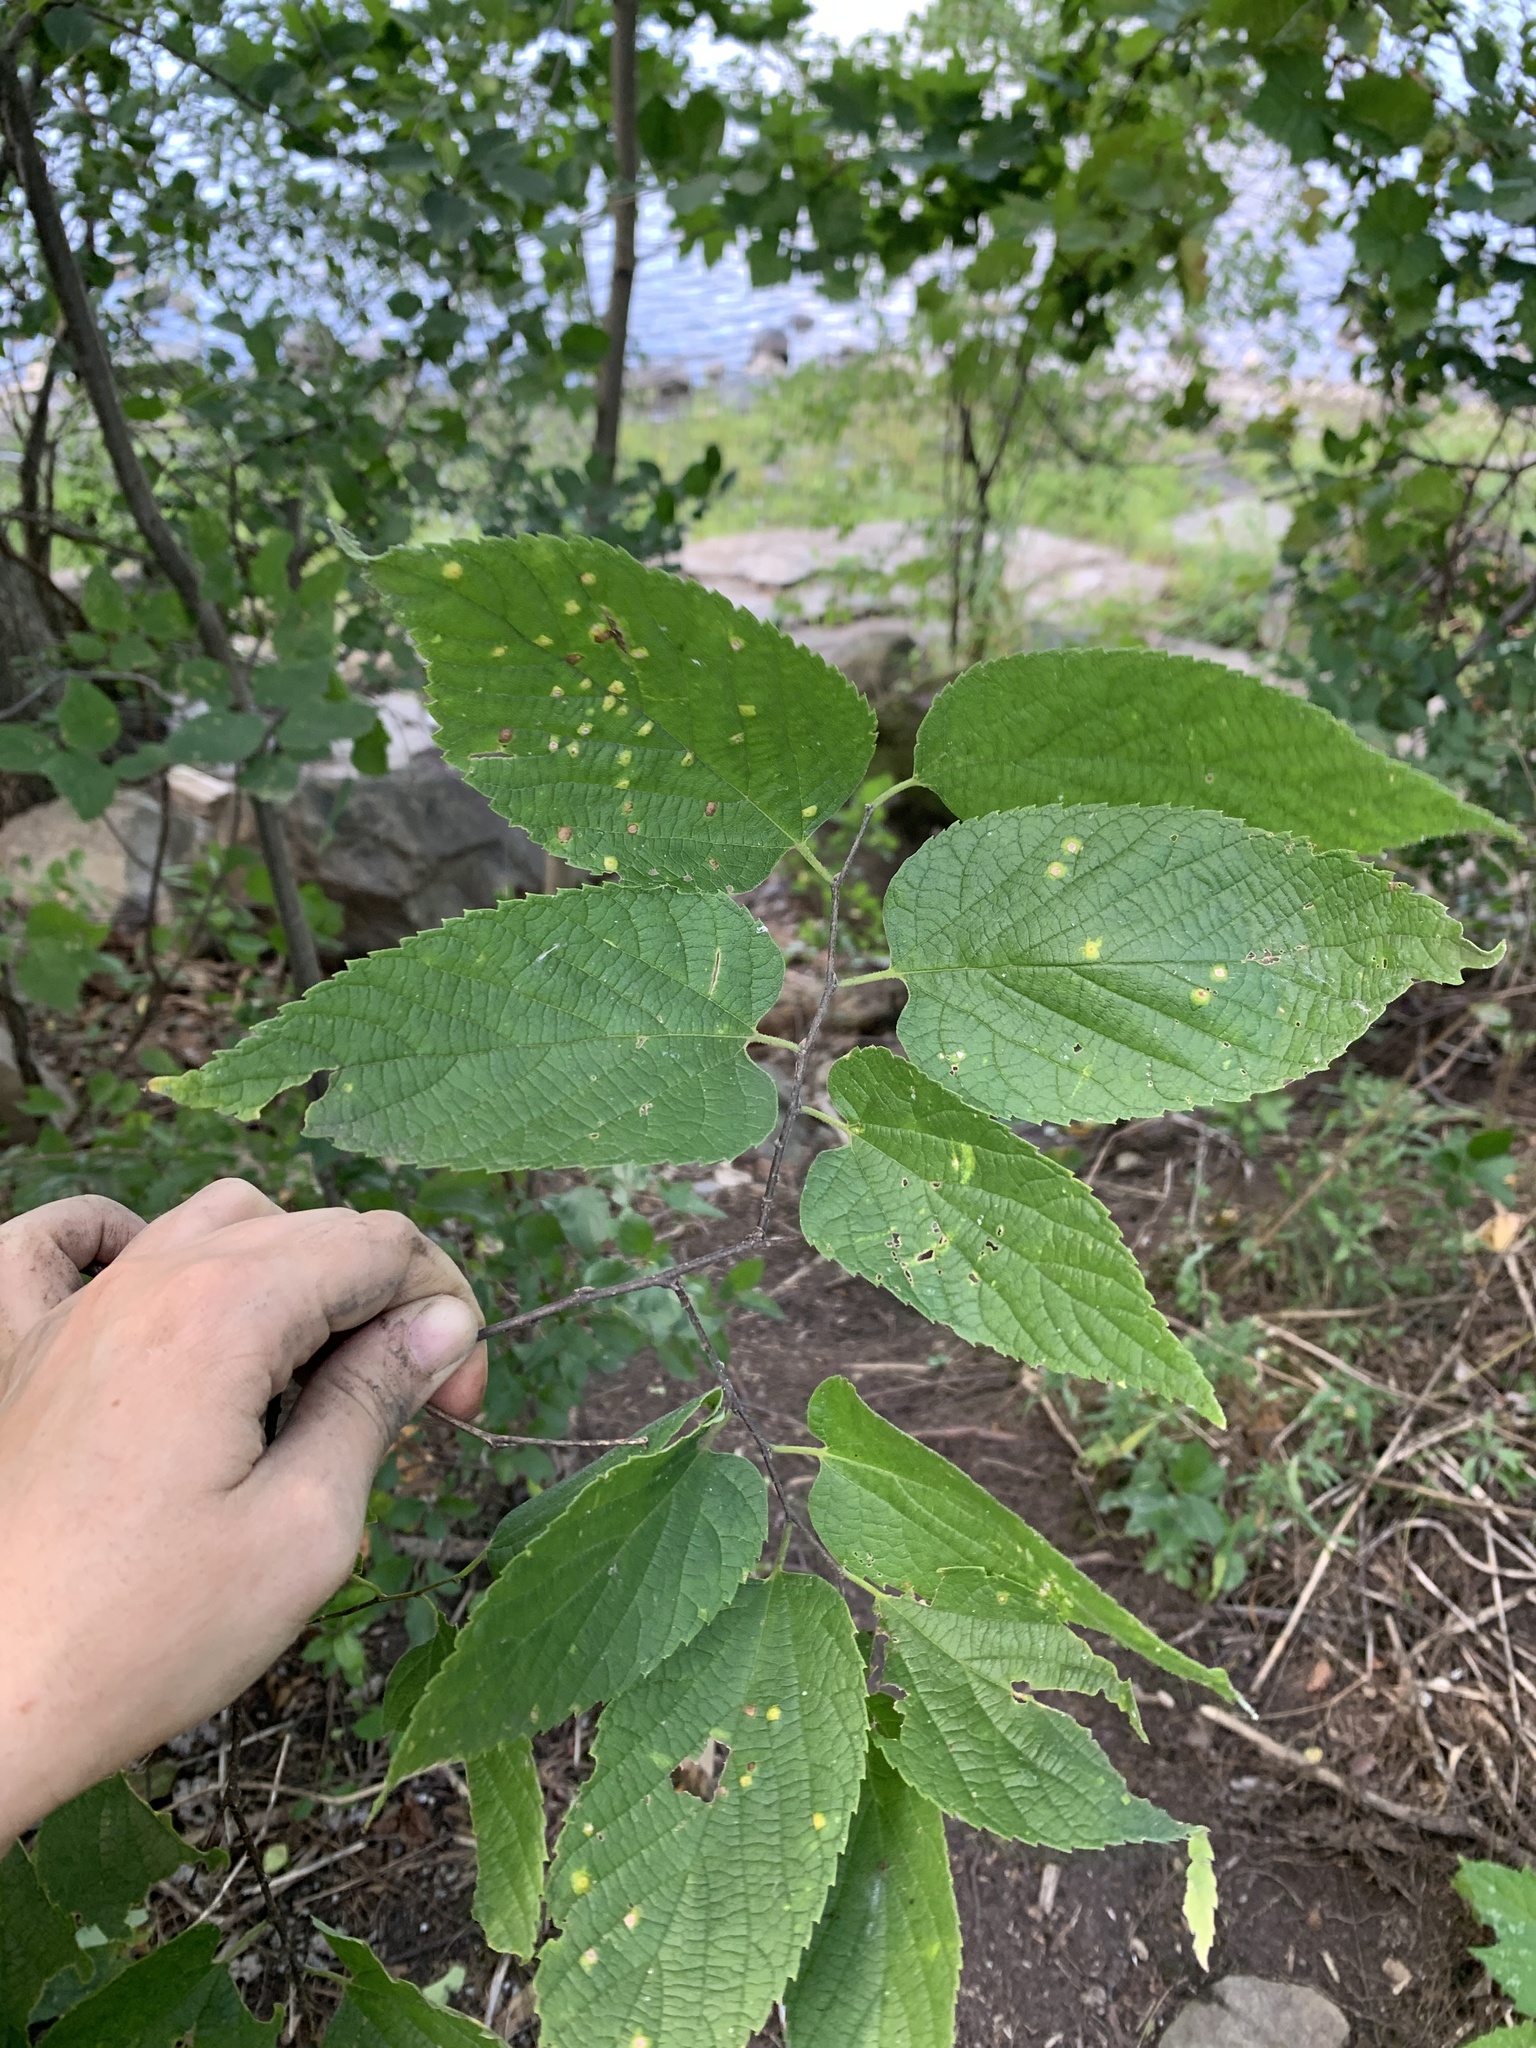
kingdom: Plantae
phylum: Tracheophyta
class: Magnoliopsida
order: Rosales
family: Cannabaceae
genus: Celtis
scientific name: Celtis occidentalis
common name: Common hackberry
